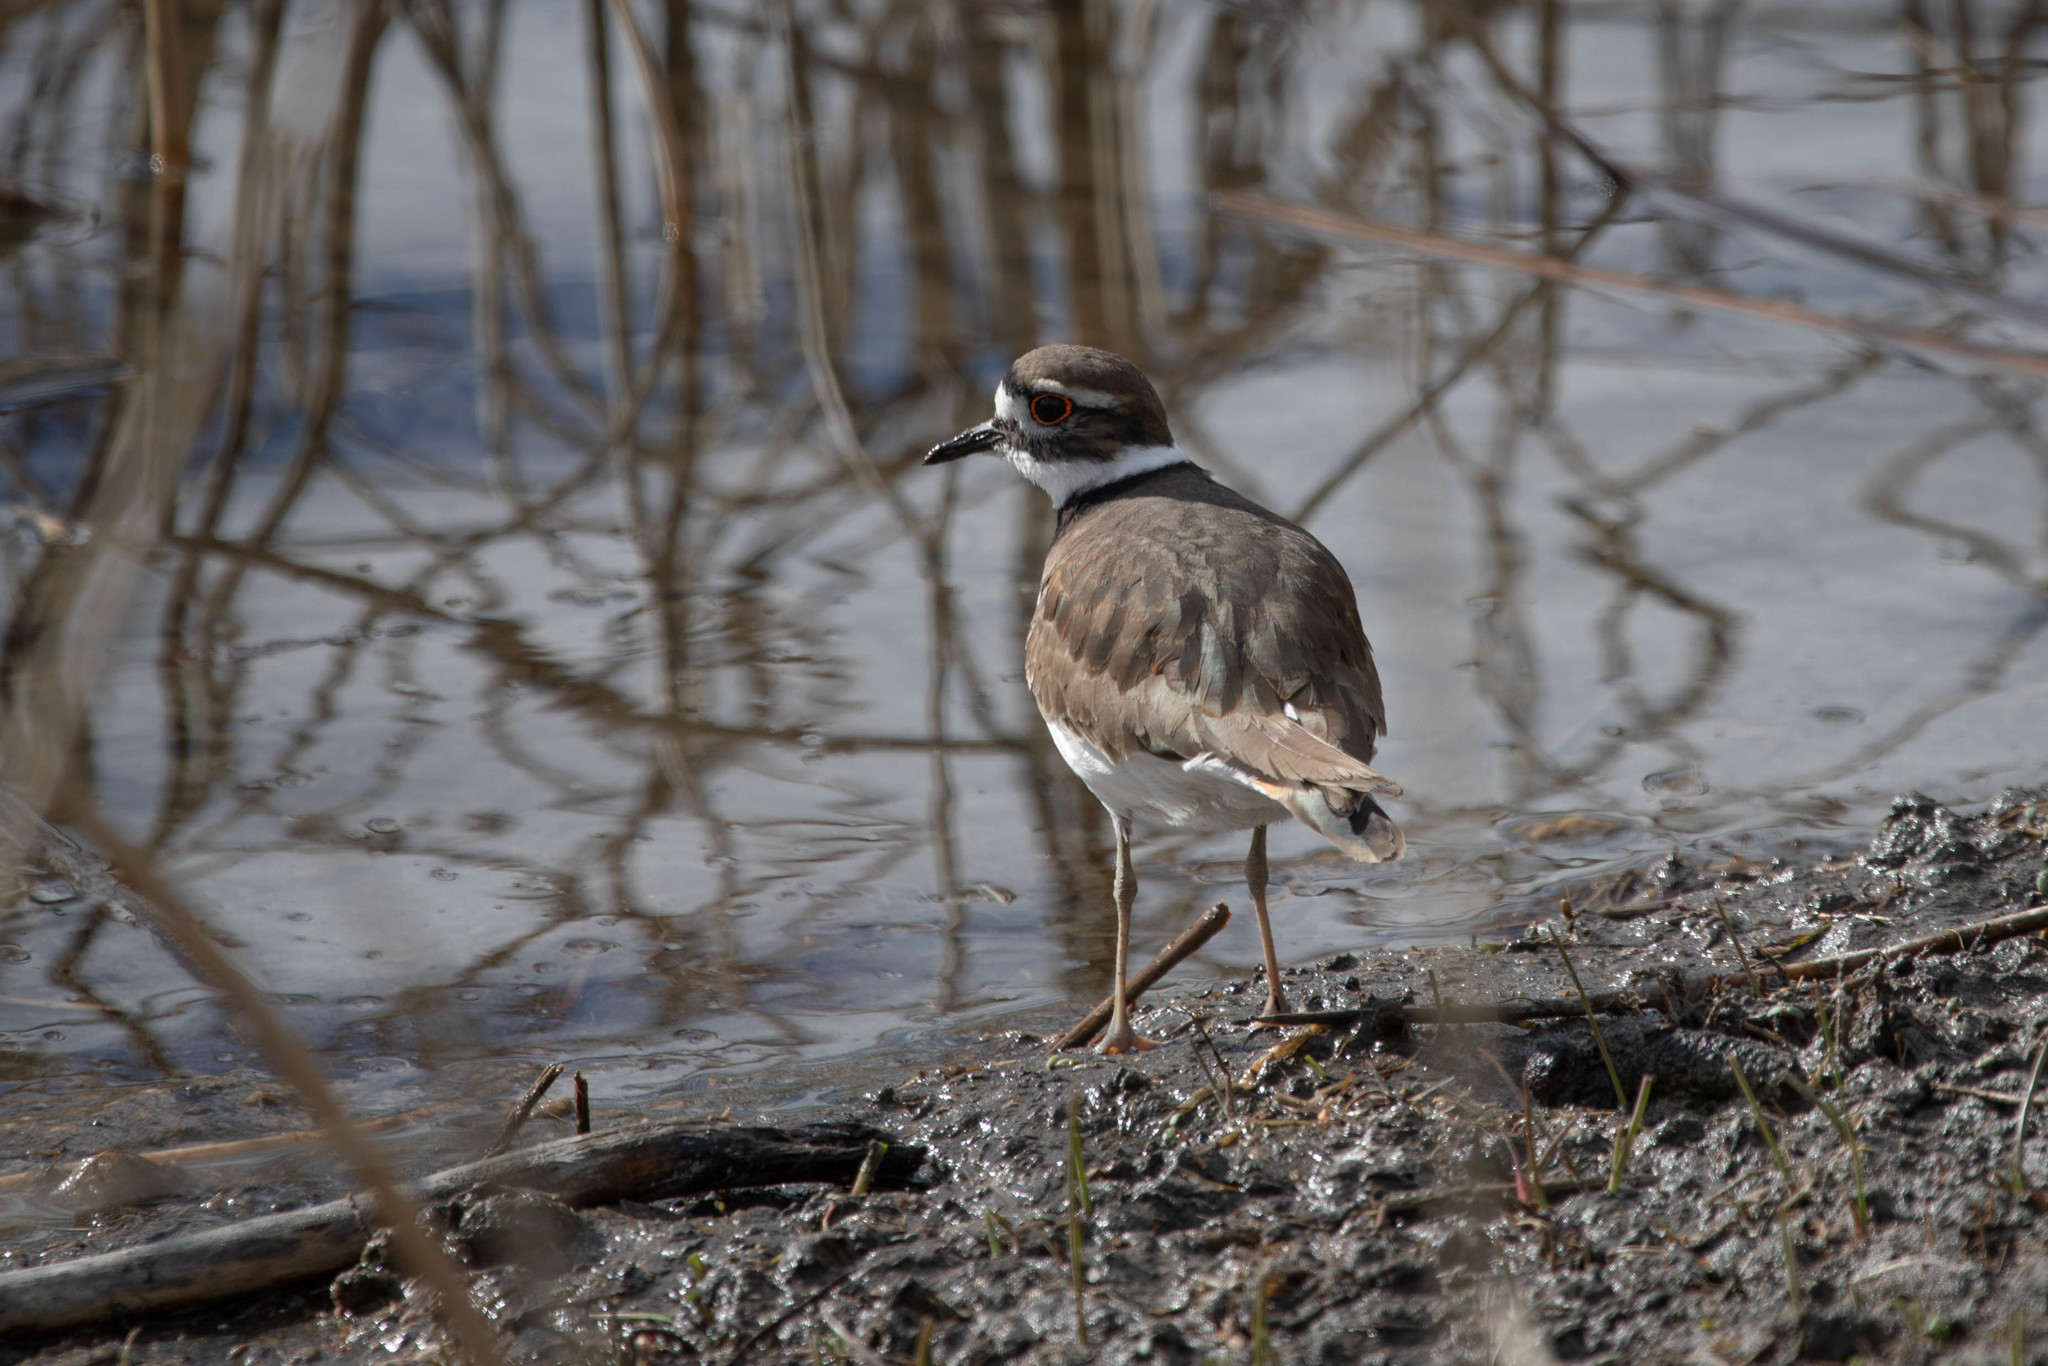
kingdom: Animalia
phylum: Chordata
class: Aves
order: Charadriiformes
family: Charadriidae
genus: Charadrius
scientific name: Charadrius vociferus
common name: Killdeer
